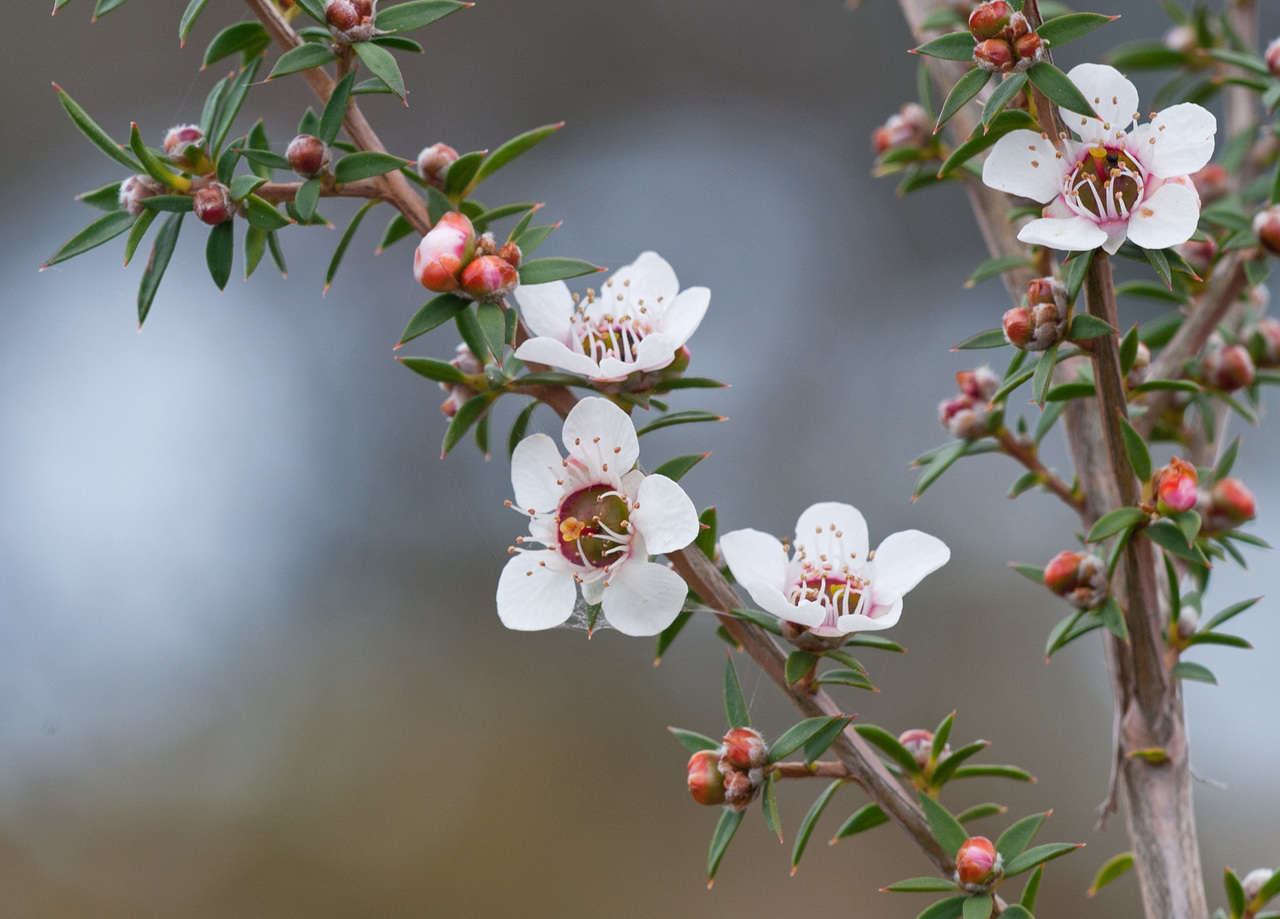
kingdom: Plantae
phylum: Tracheophyta
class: Magnoliopsida
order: Myrtales
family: Myrtaceae
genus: Leptospermum
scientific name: Leptospermum continentale
